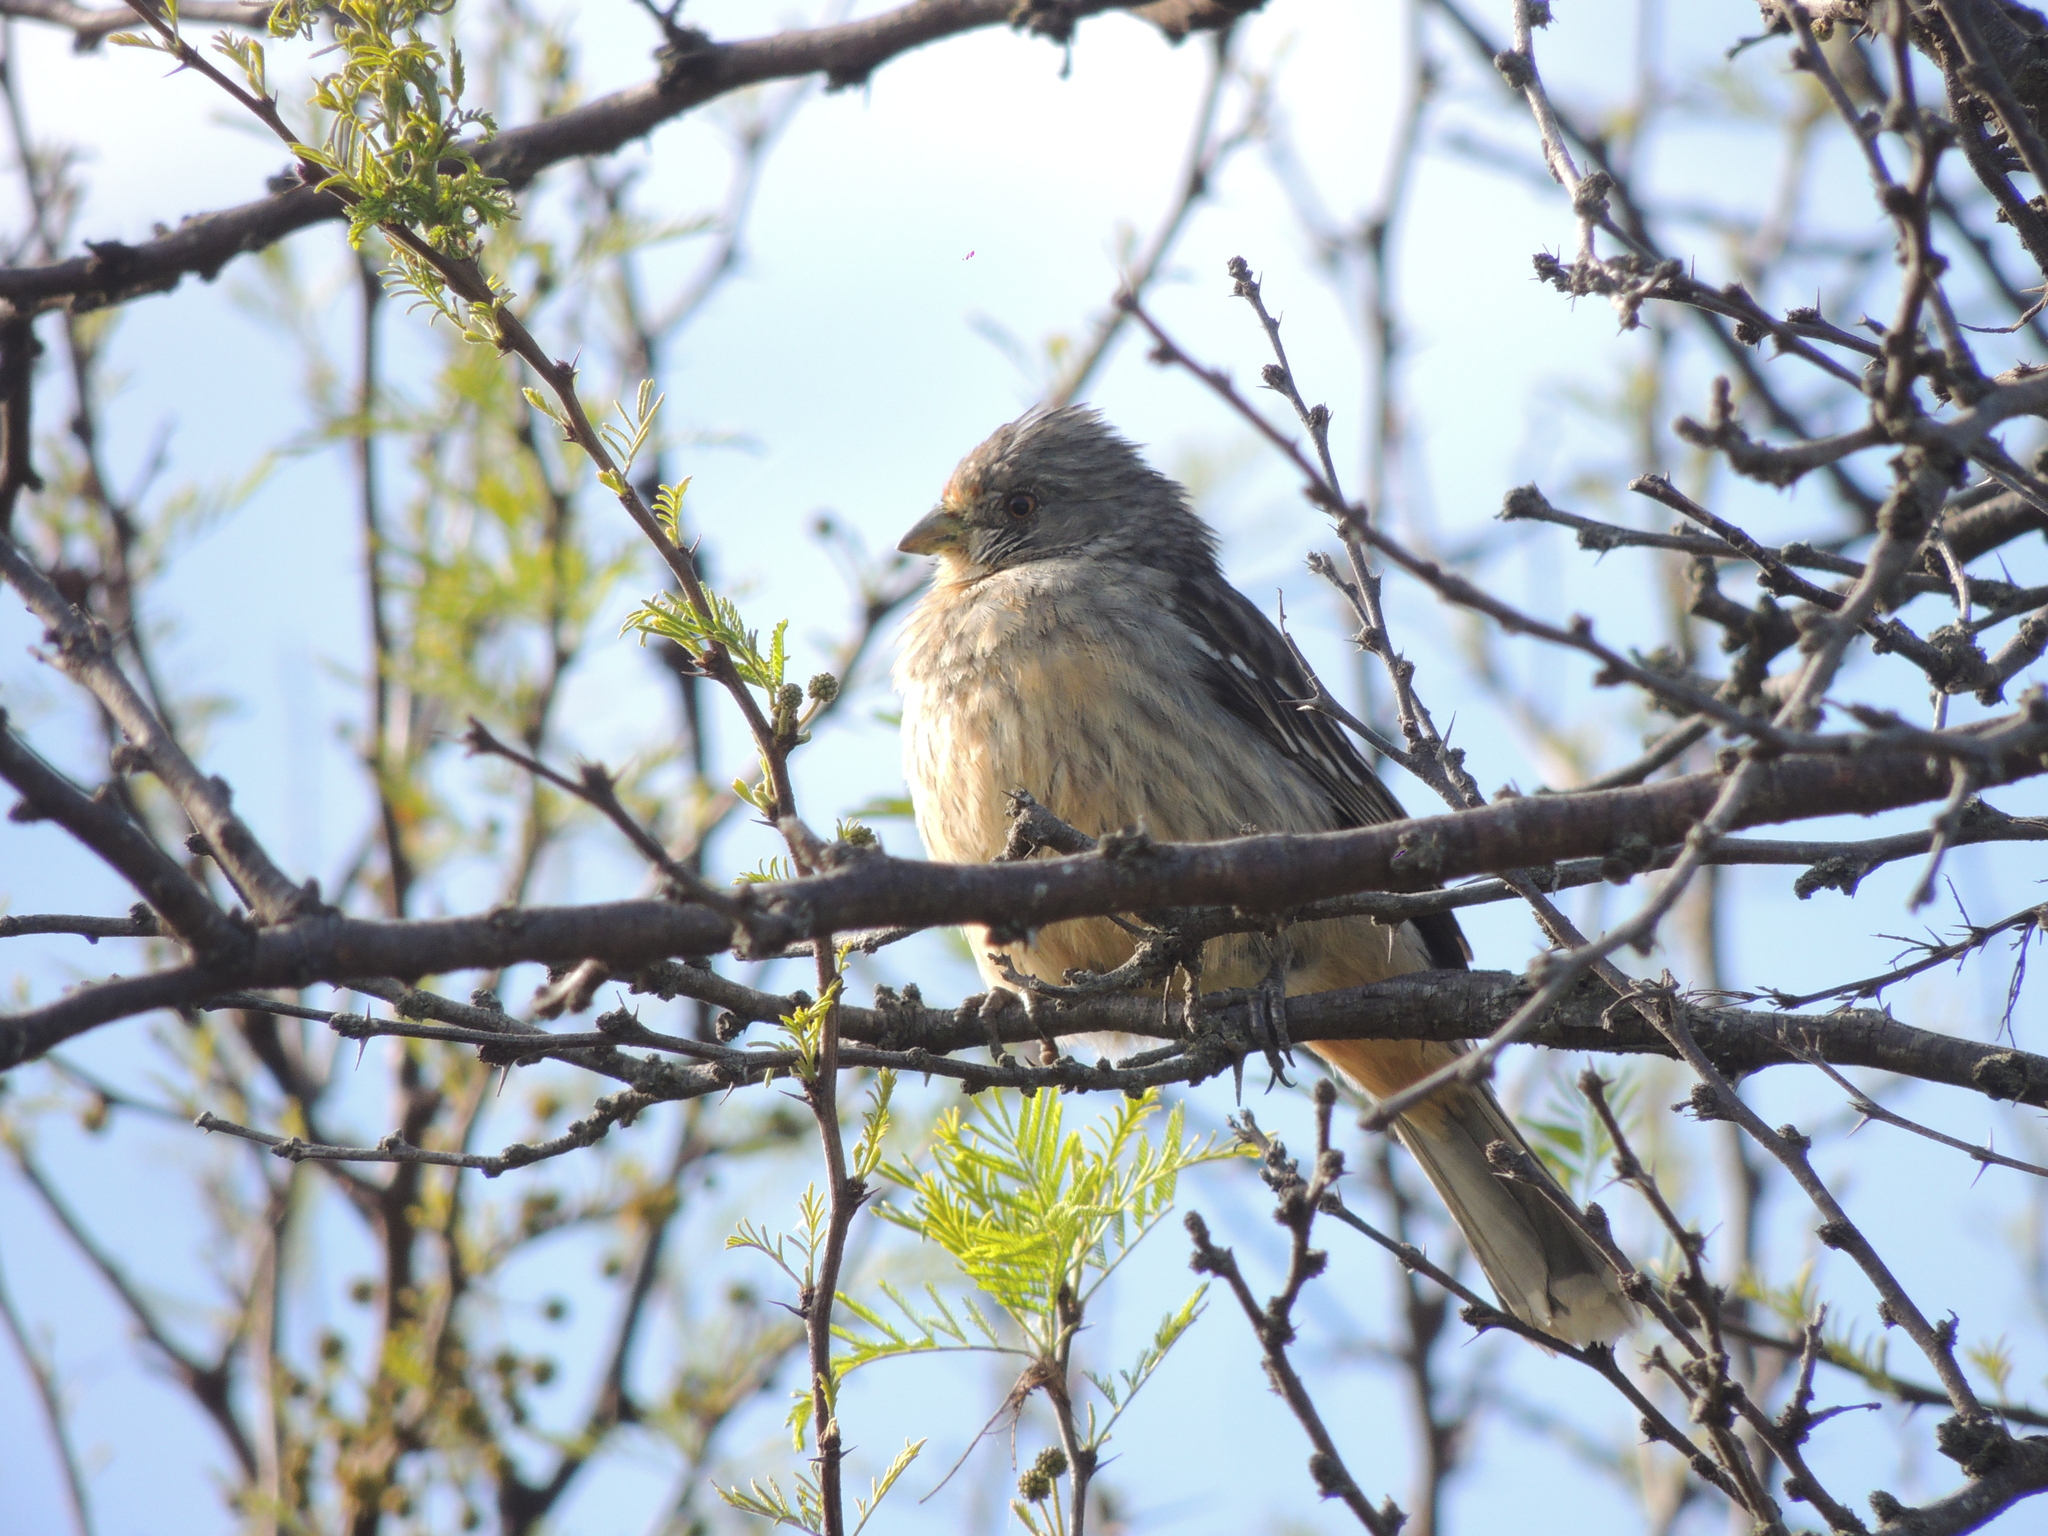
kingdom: Animalia
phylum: Chordata
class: Aves
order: Passeriformes
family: Cotingidae
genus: Phytotoma
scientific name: Phytotoma rutila
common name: White-tipped plantcutter
